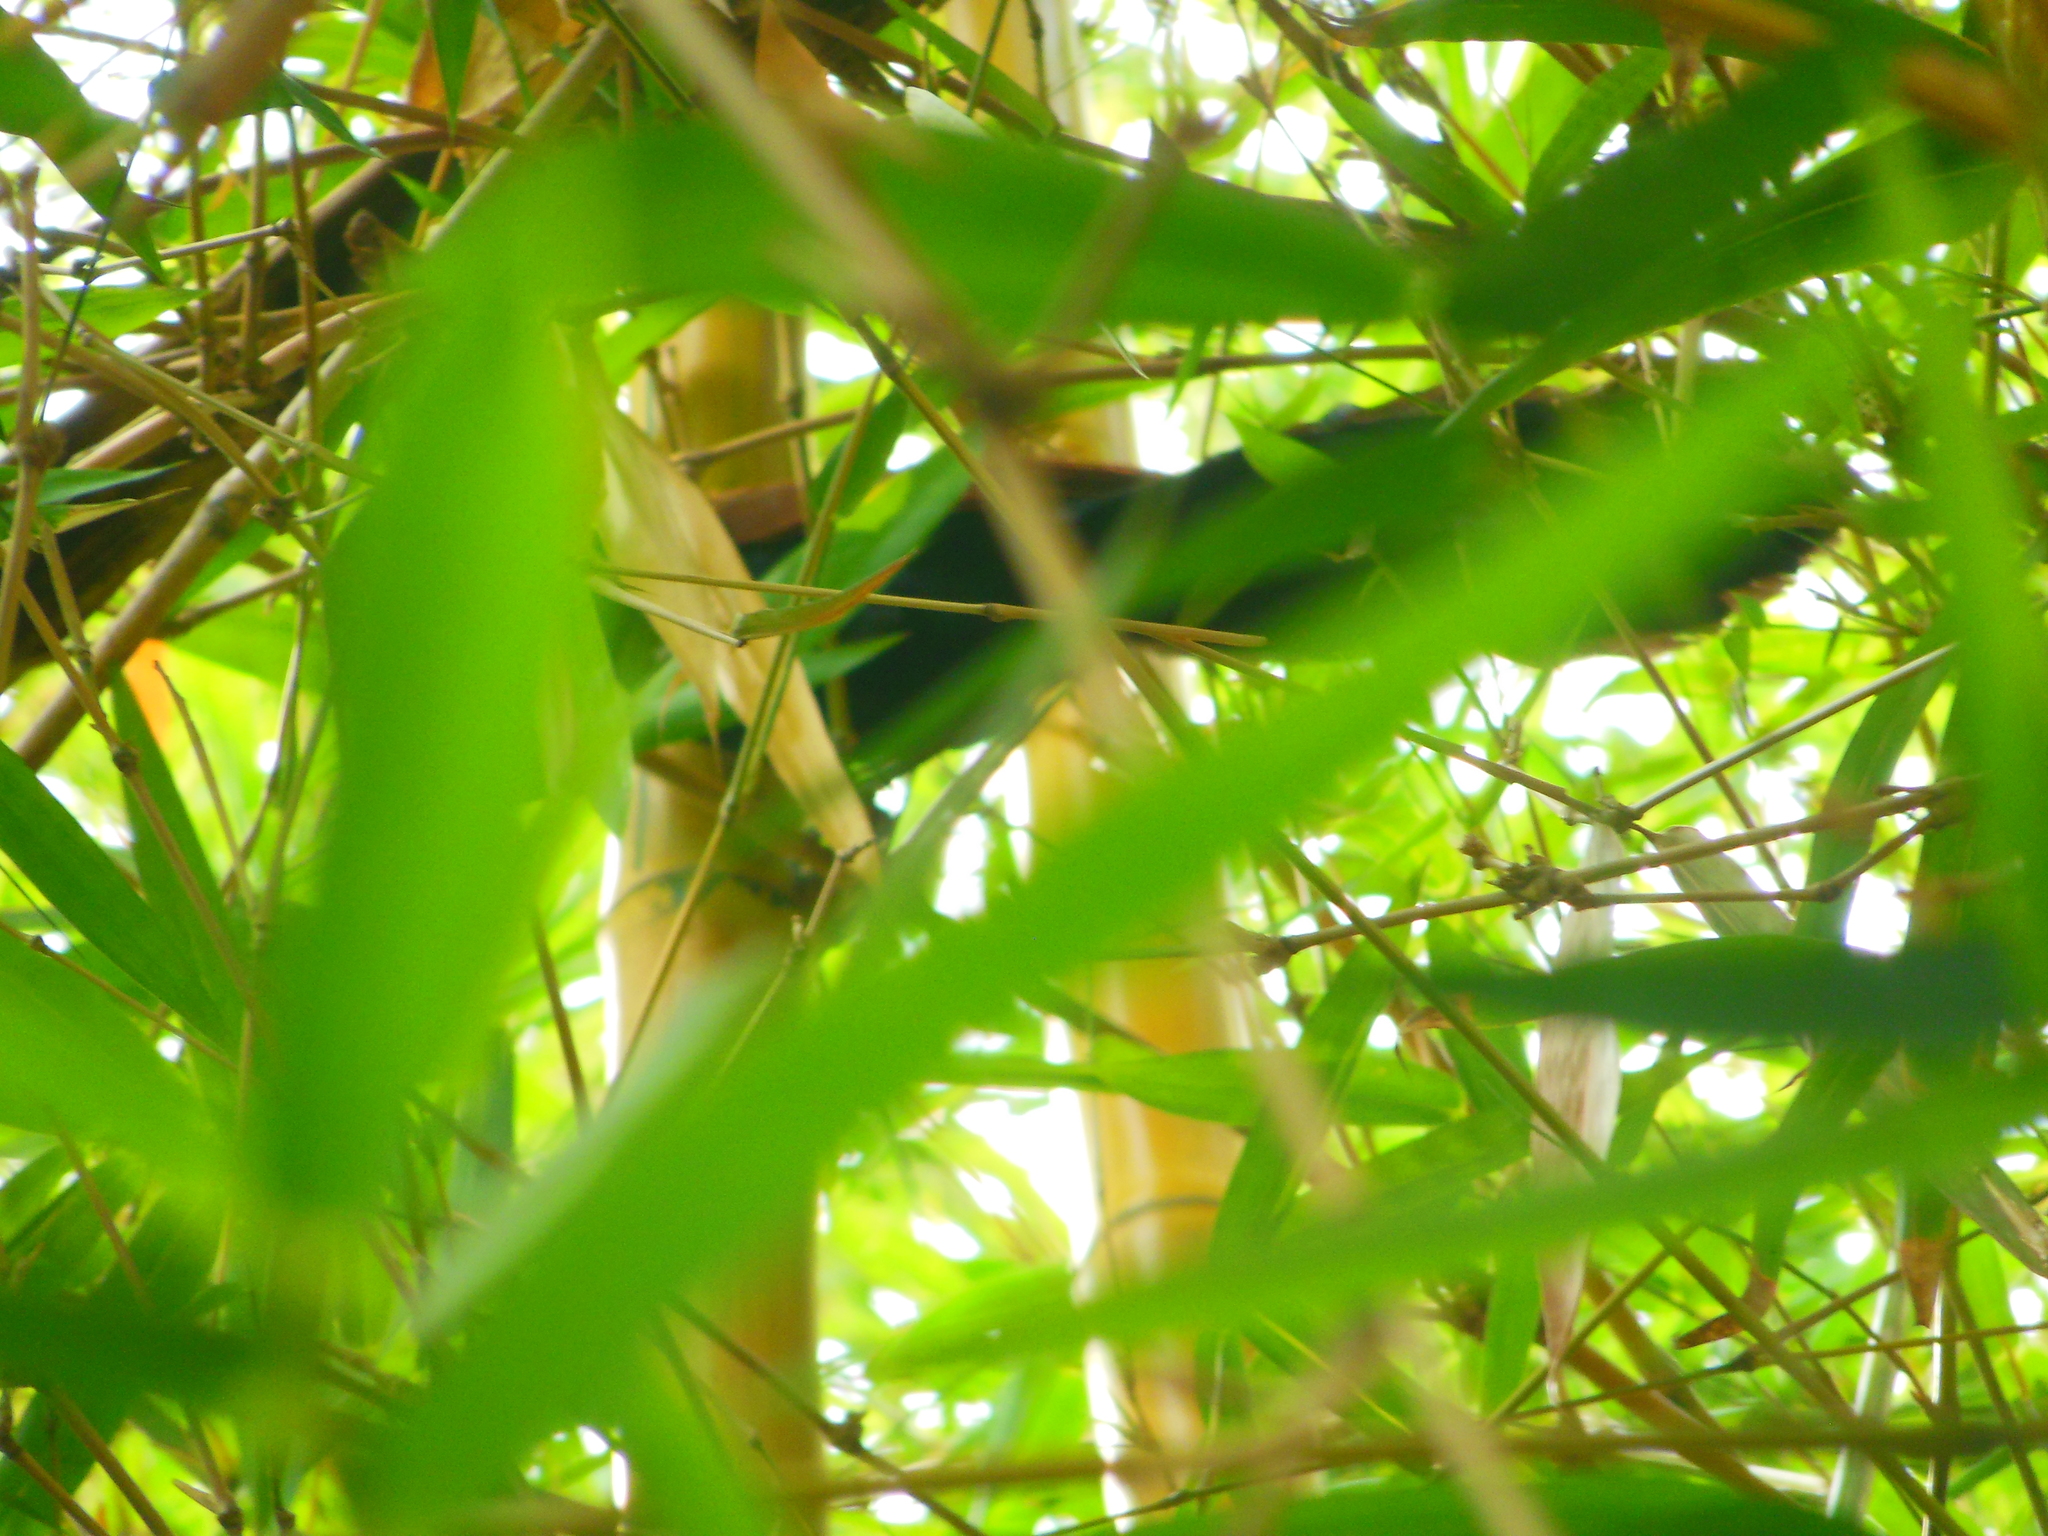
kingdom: Animalia
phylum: Chordata
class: Aves
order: Cuculiformes
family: Cuculidae
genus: Centropus
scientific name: Centropus sinensis
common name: Greater coucal
